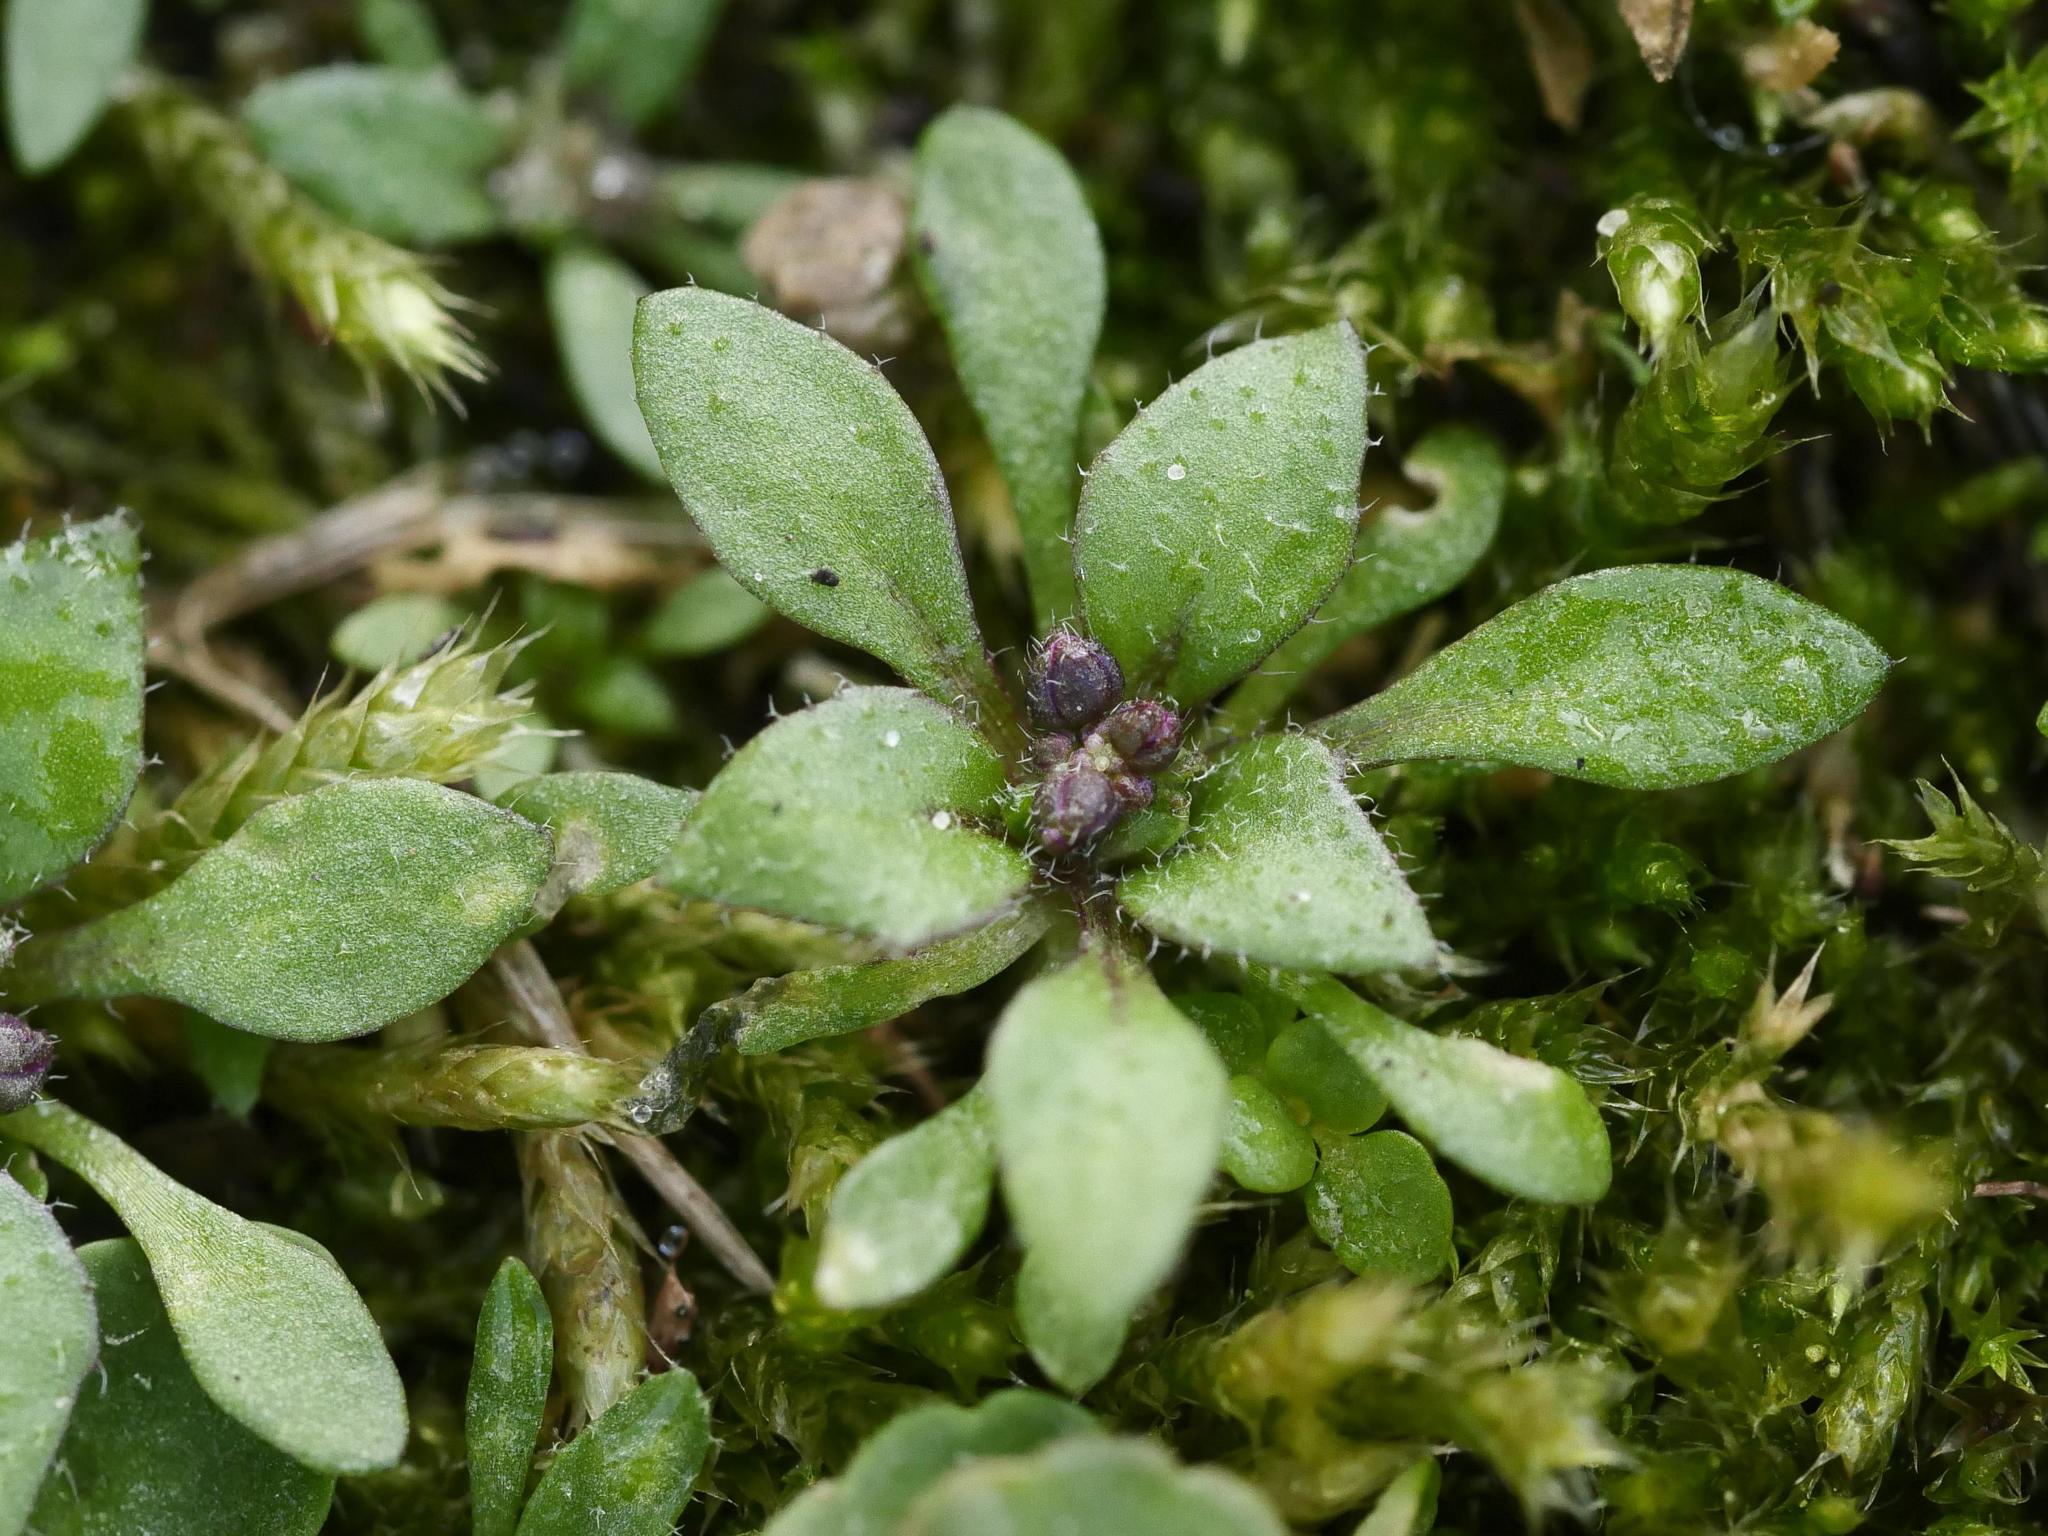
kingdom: Plantae
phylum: Tracheophyta
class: Magnoliopsida
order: Brassicales
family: Brassicaceae
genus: Draba
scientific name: Draba verna
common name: Spring draba
